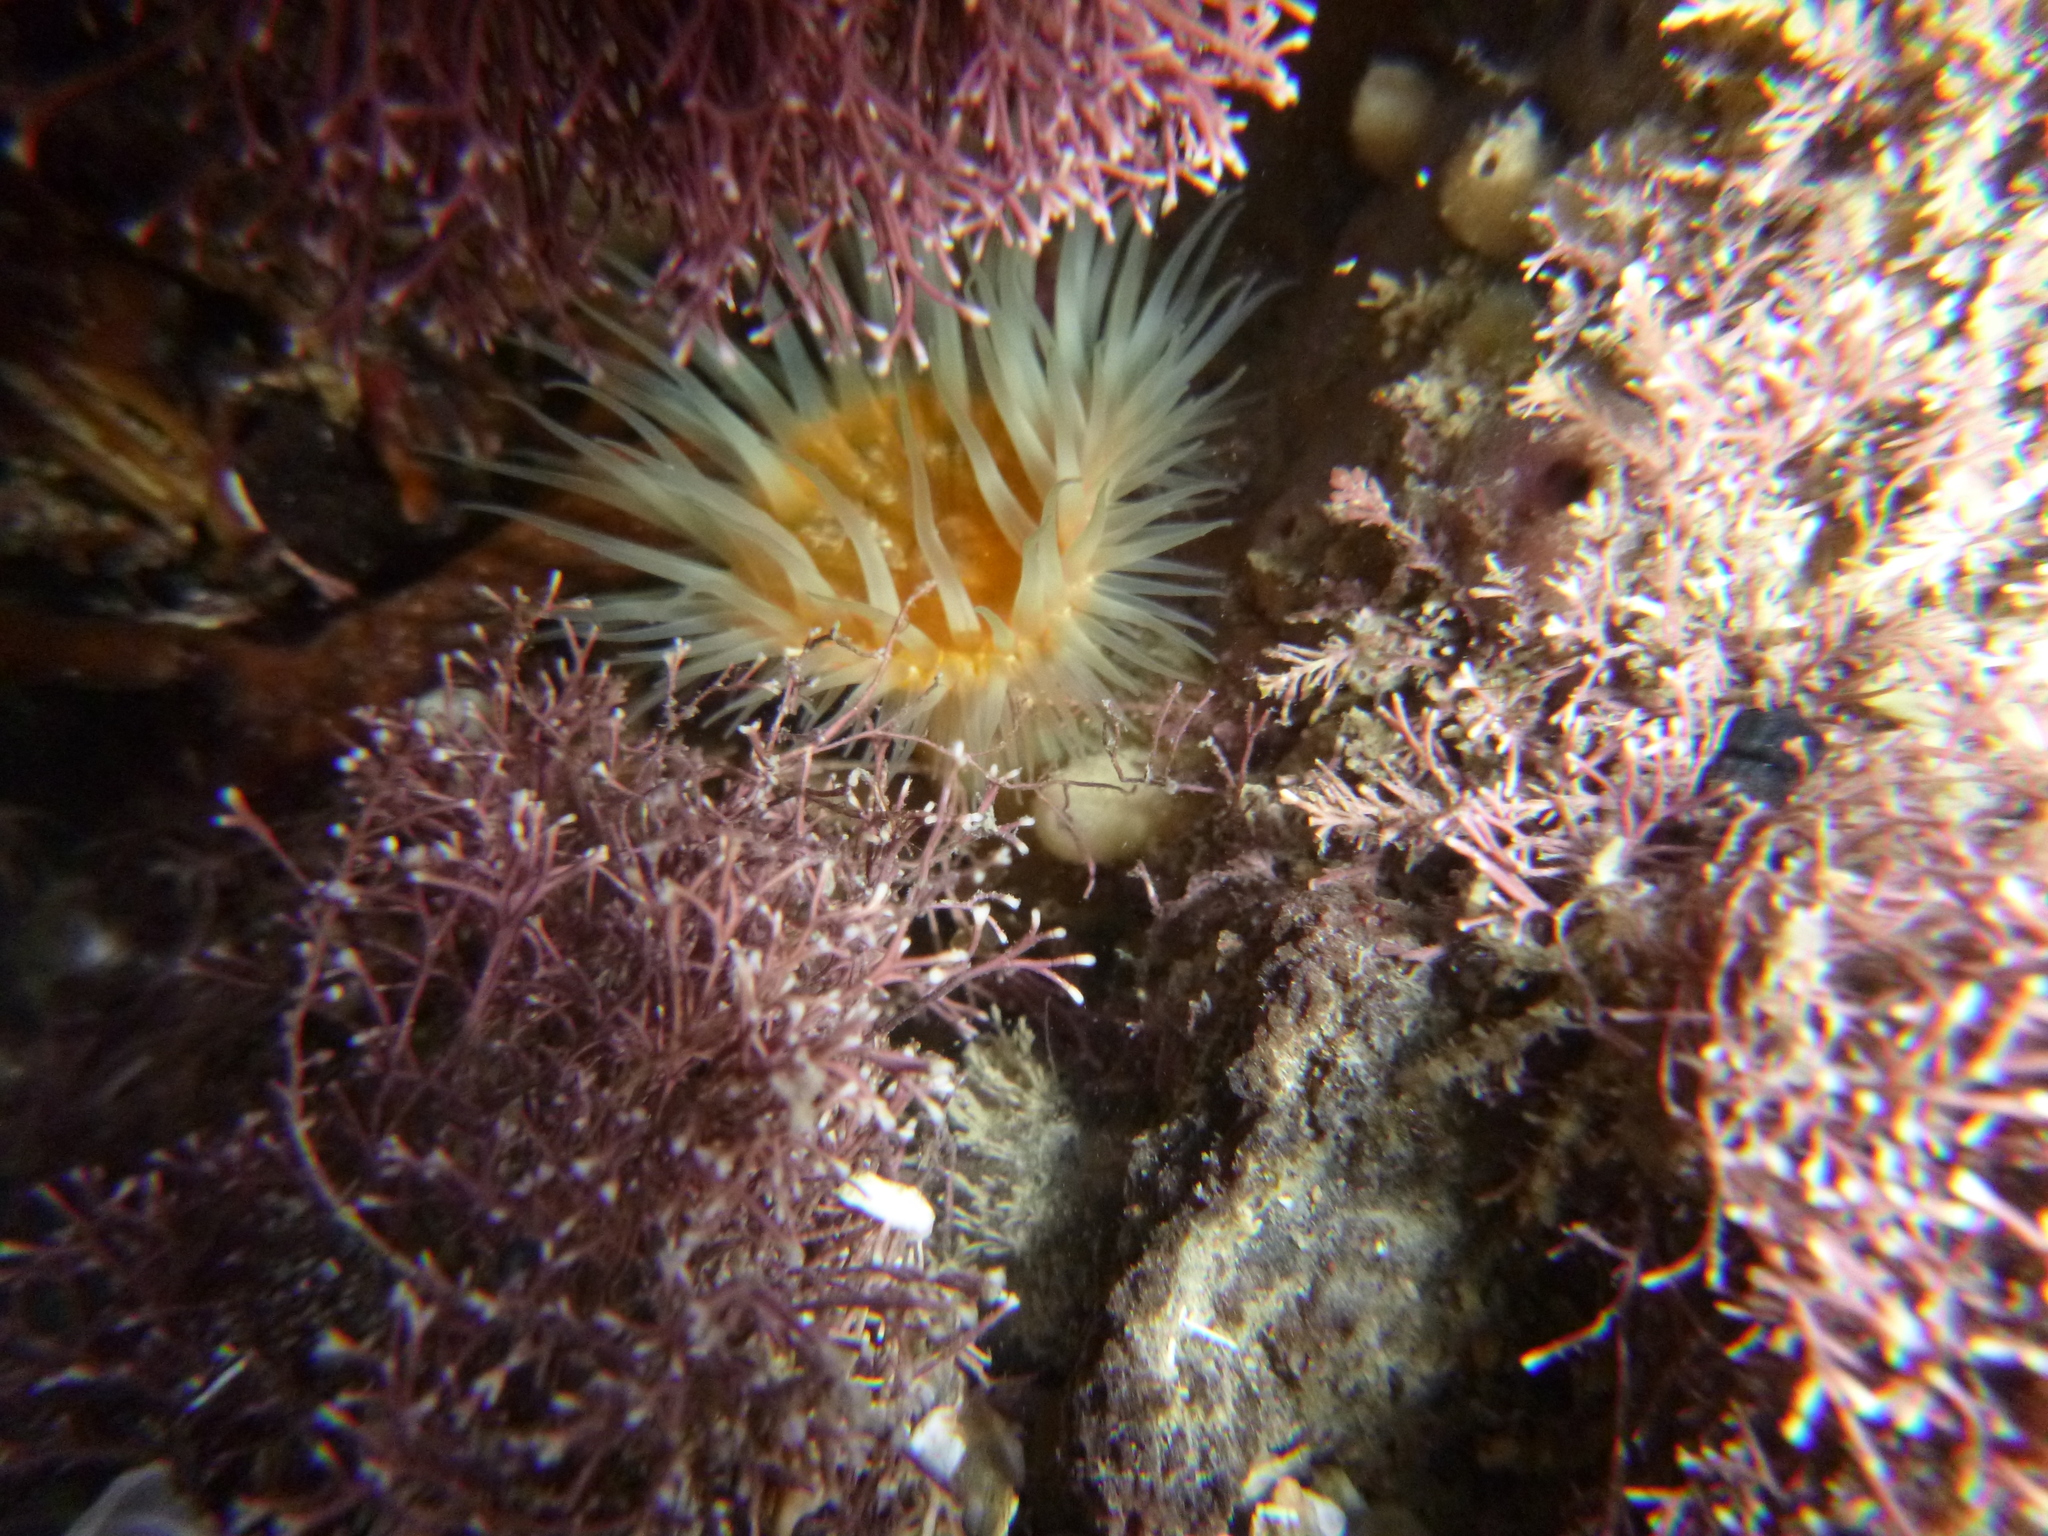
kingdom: Animalia
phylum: Cnidaria
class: Anthozoa
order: Actiniaria
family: Sagartiidae
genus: Anthothoe
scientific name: Anthothoe albocincta
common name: Orange striped anemone
